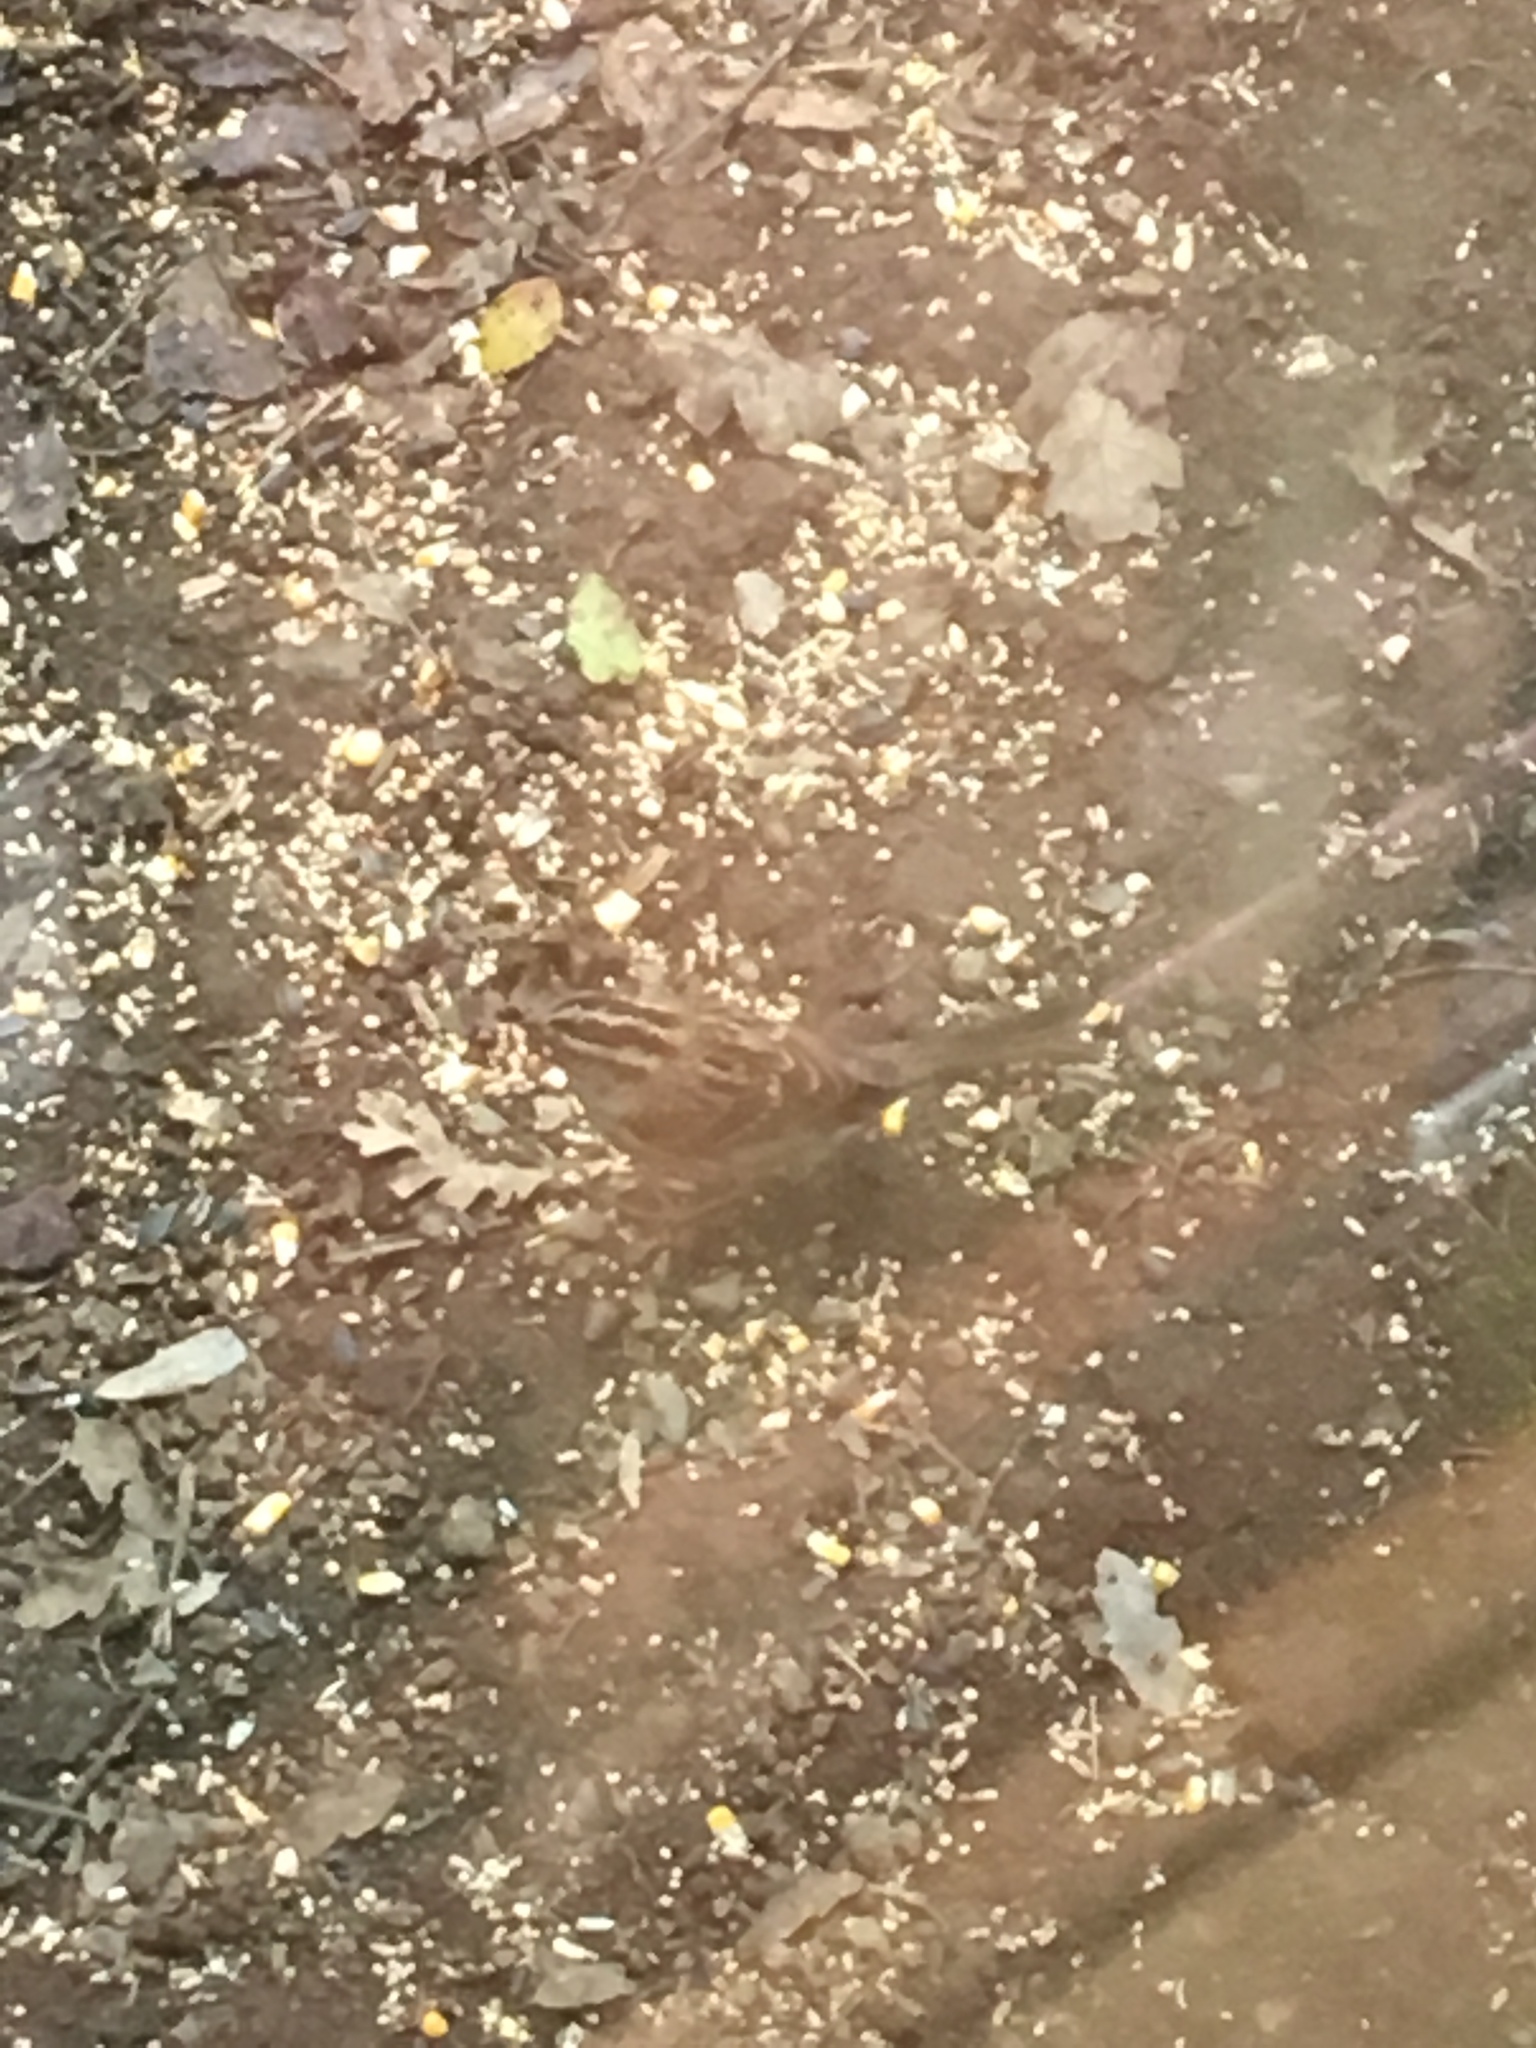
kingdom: Animalia
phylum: Chordata
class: Aves
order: Passeriformes
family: Passerellidae
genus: Zonotrichia
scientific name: Zonotrichia albicollis
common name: White-throated sparrow
